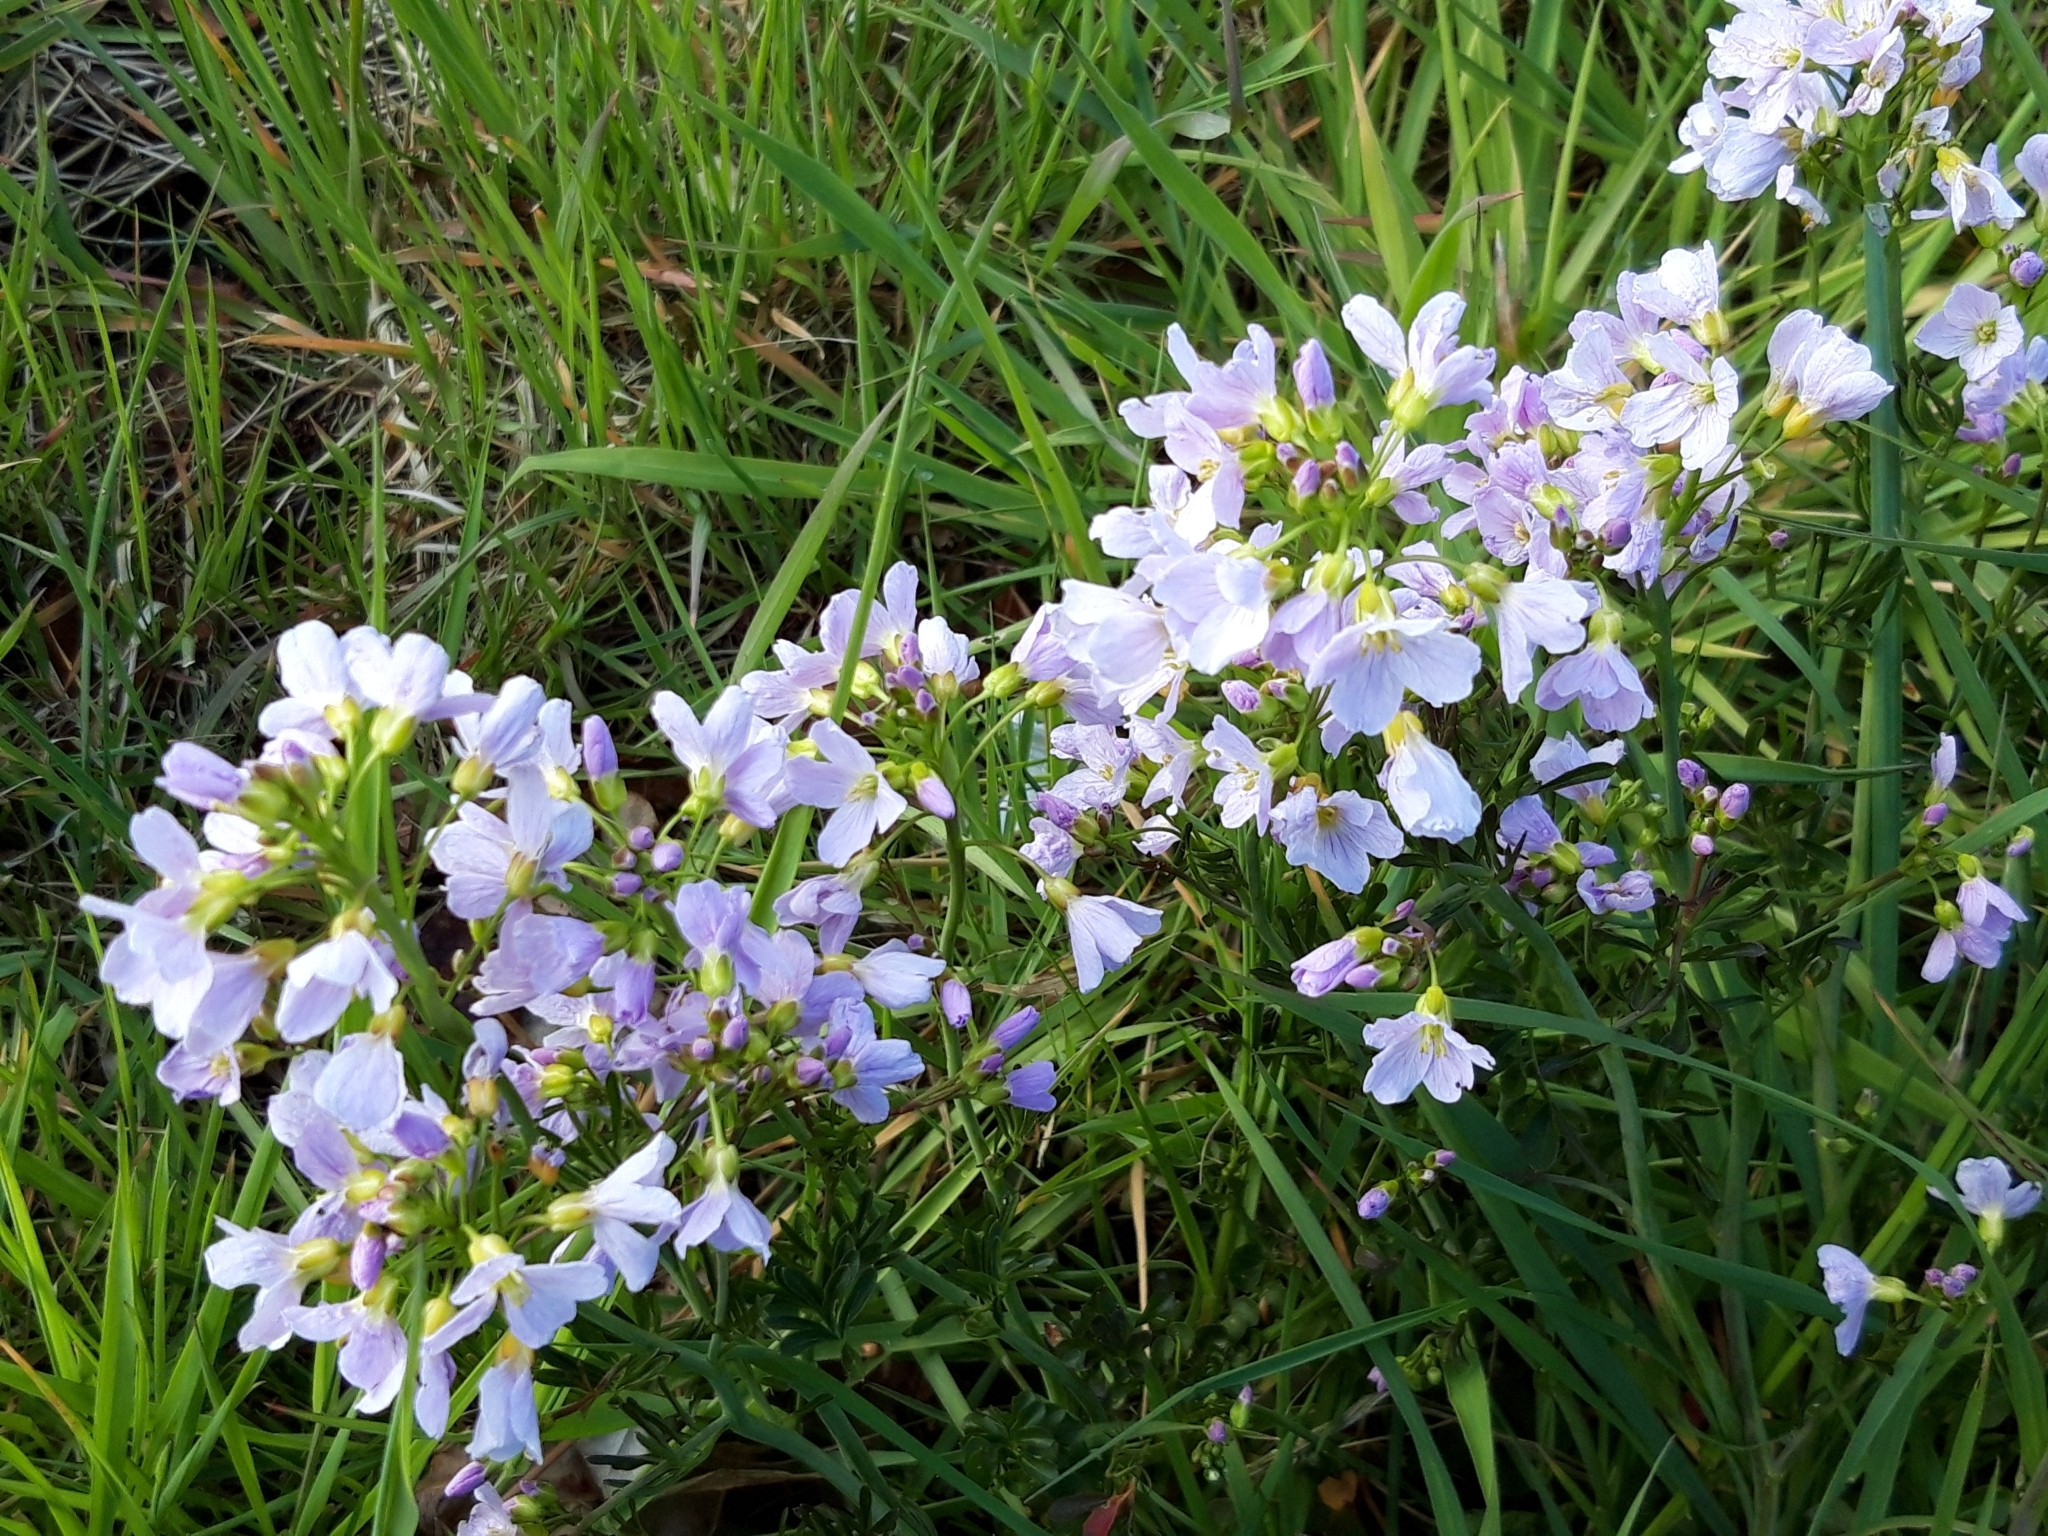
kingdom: Plantae
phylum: Tracheophyta
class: Magnoliopsida
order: Brassicales
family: Brassicaceae
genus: Cardamine
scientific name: Cardamine pratensis
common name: Cuckoo flower
